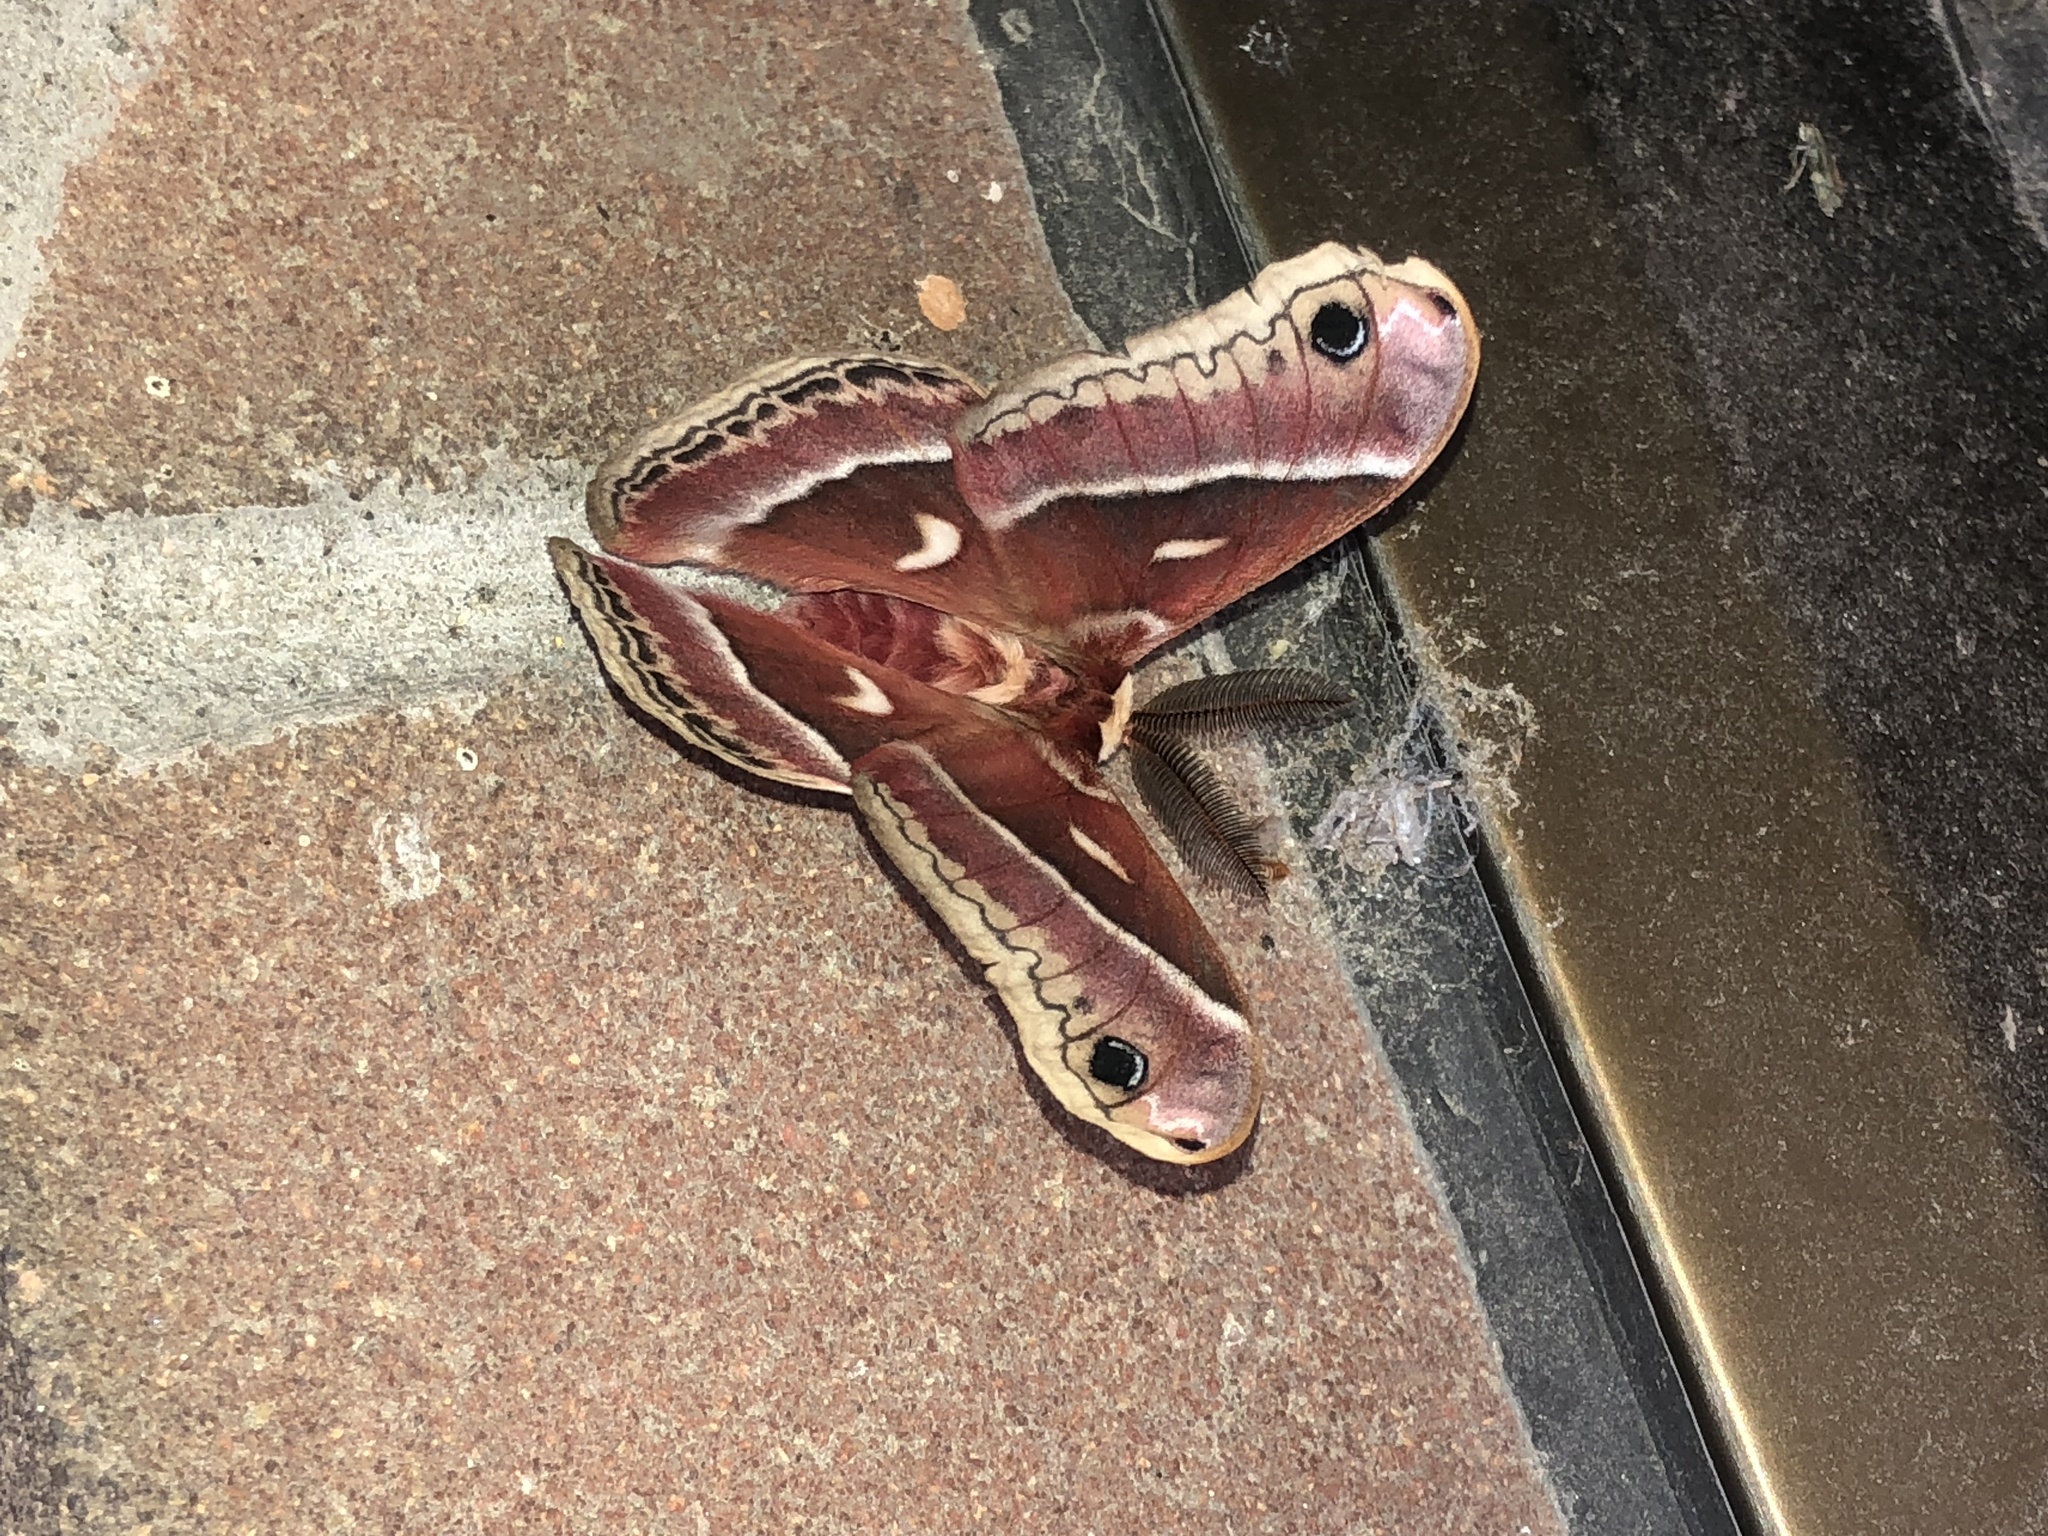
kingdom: Animalia
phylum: Arthropoda
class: Insecta
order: Lepidoptera
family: Saturniidae
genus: Hyalophora
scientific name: Hyalophora euryalus
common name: Ceanothus silkmoth
